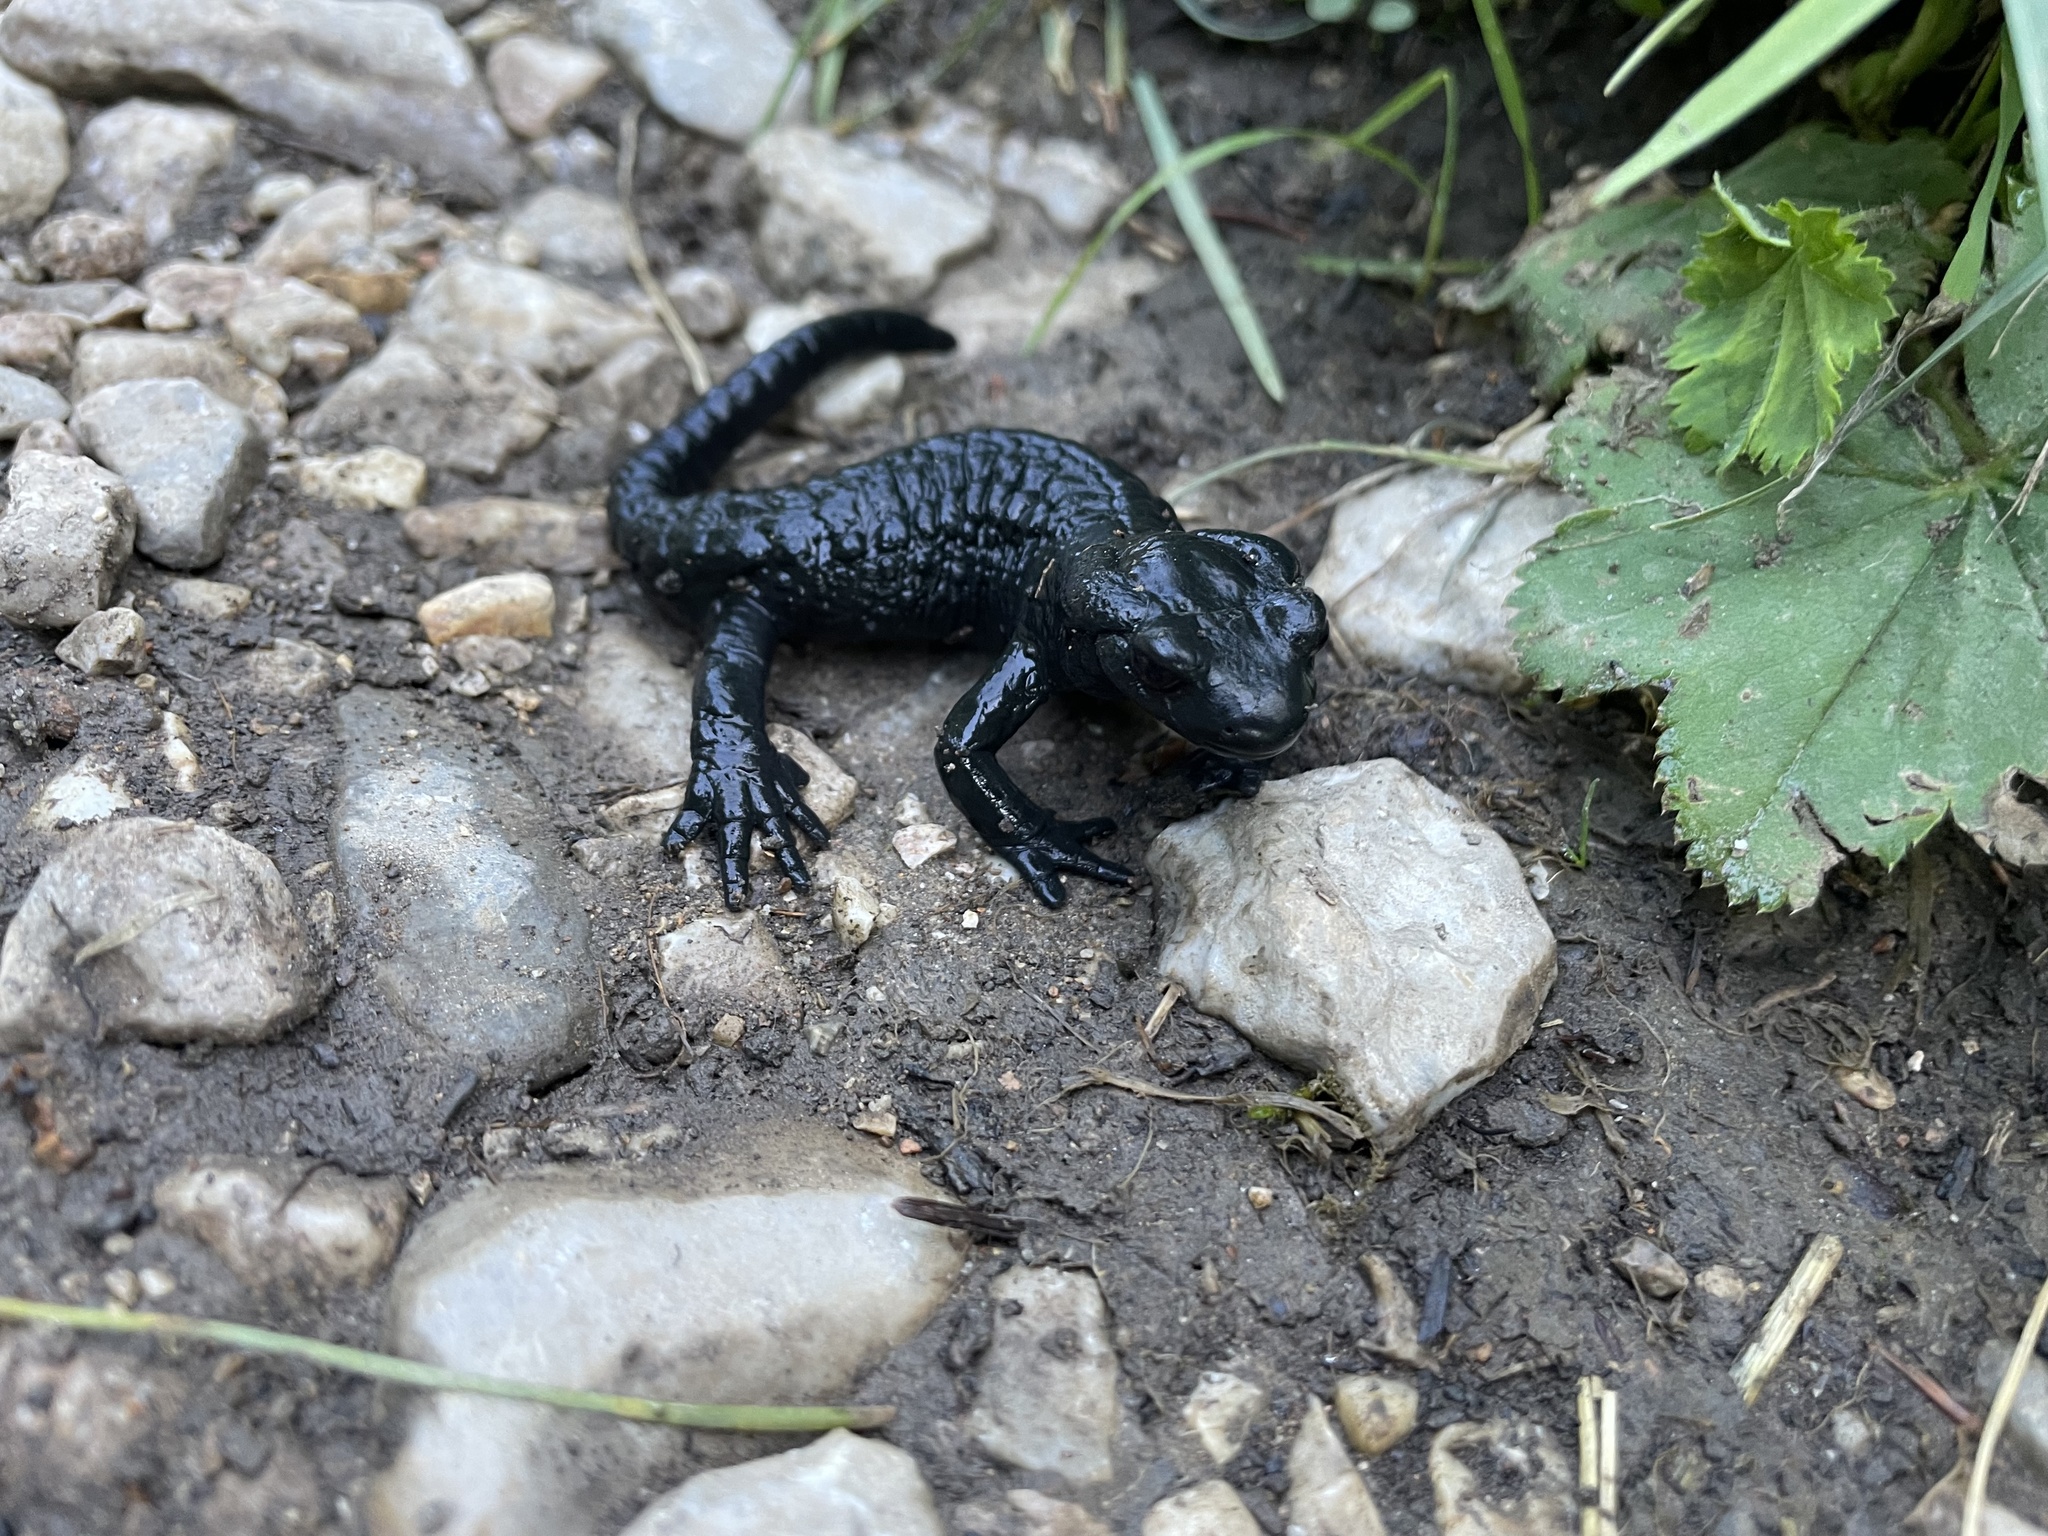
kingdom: Animalia
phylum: Chordata
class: Amphibia
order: Caudata
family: Salamandridae
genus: Salamandra
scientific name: Salamandra atra
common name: Alpine salamander
